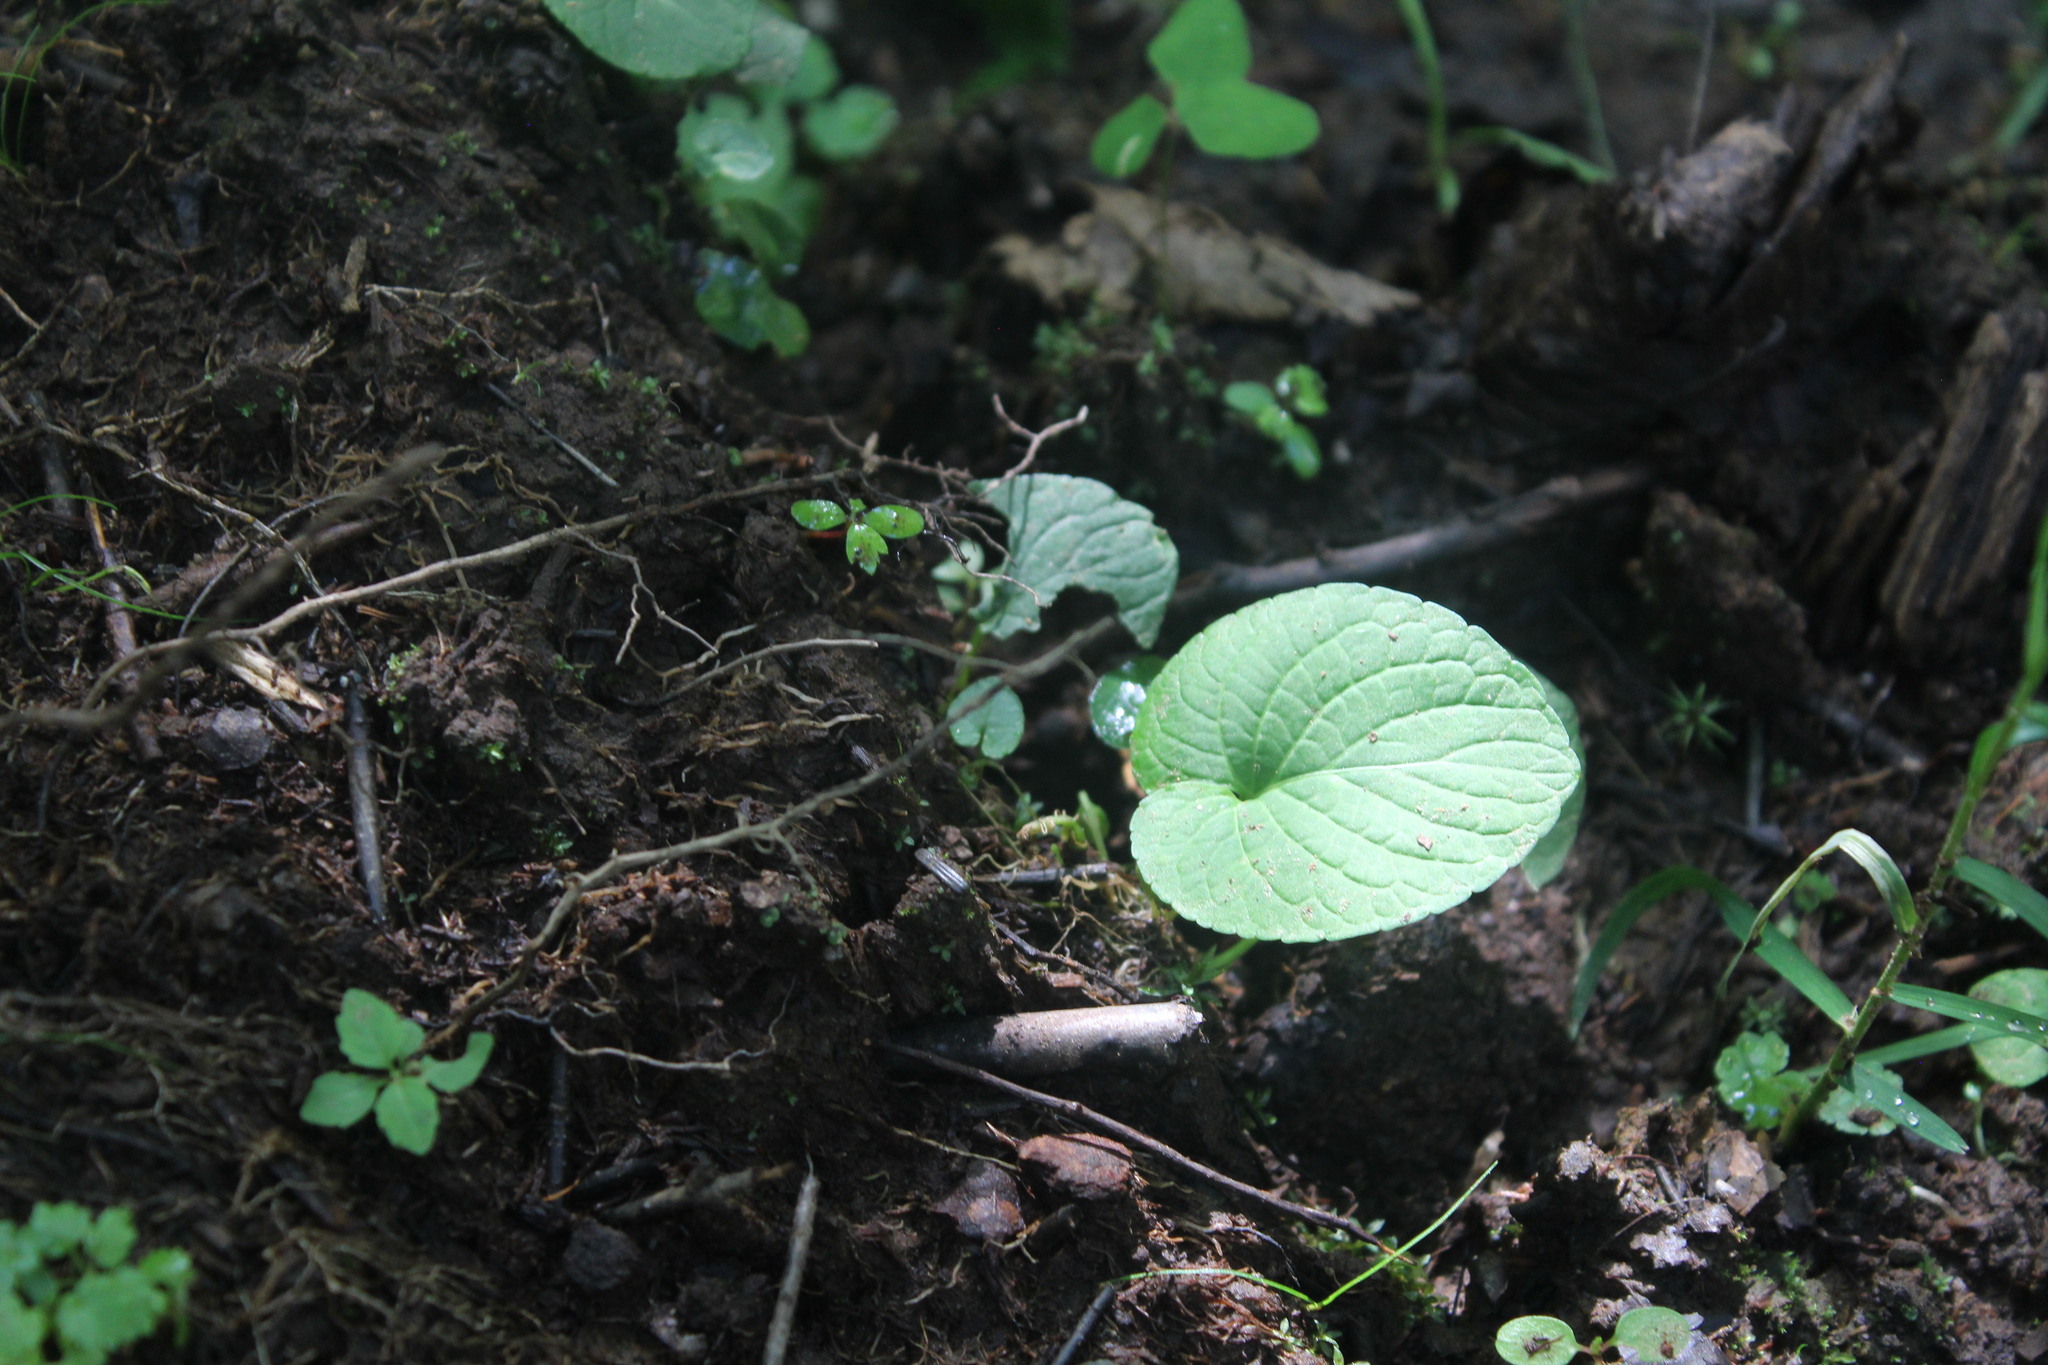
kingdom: Plantae
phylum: Tracheophyta
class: Magnoliopsida
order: Malpighiales
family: Violaceae
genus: Viola
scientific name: Viola
